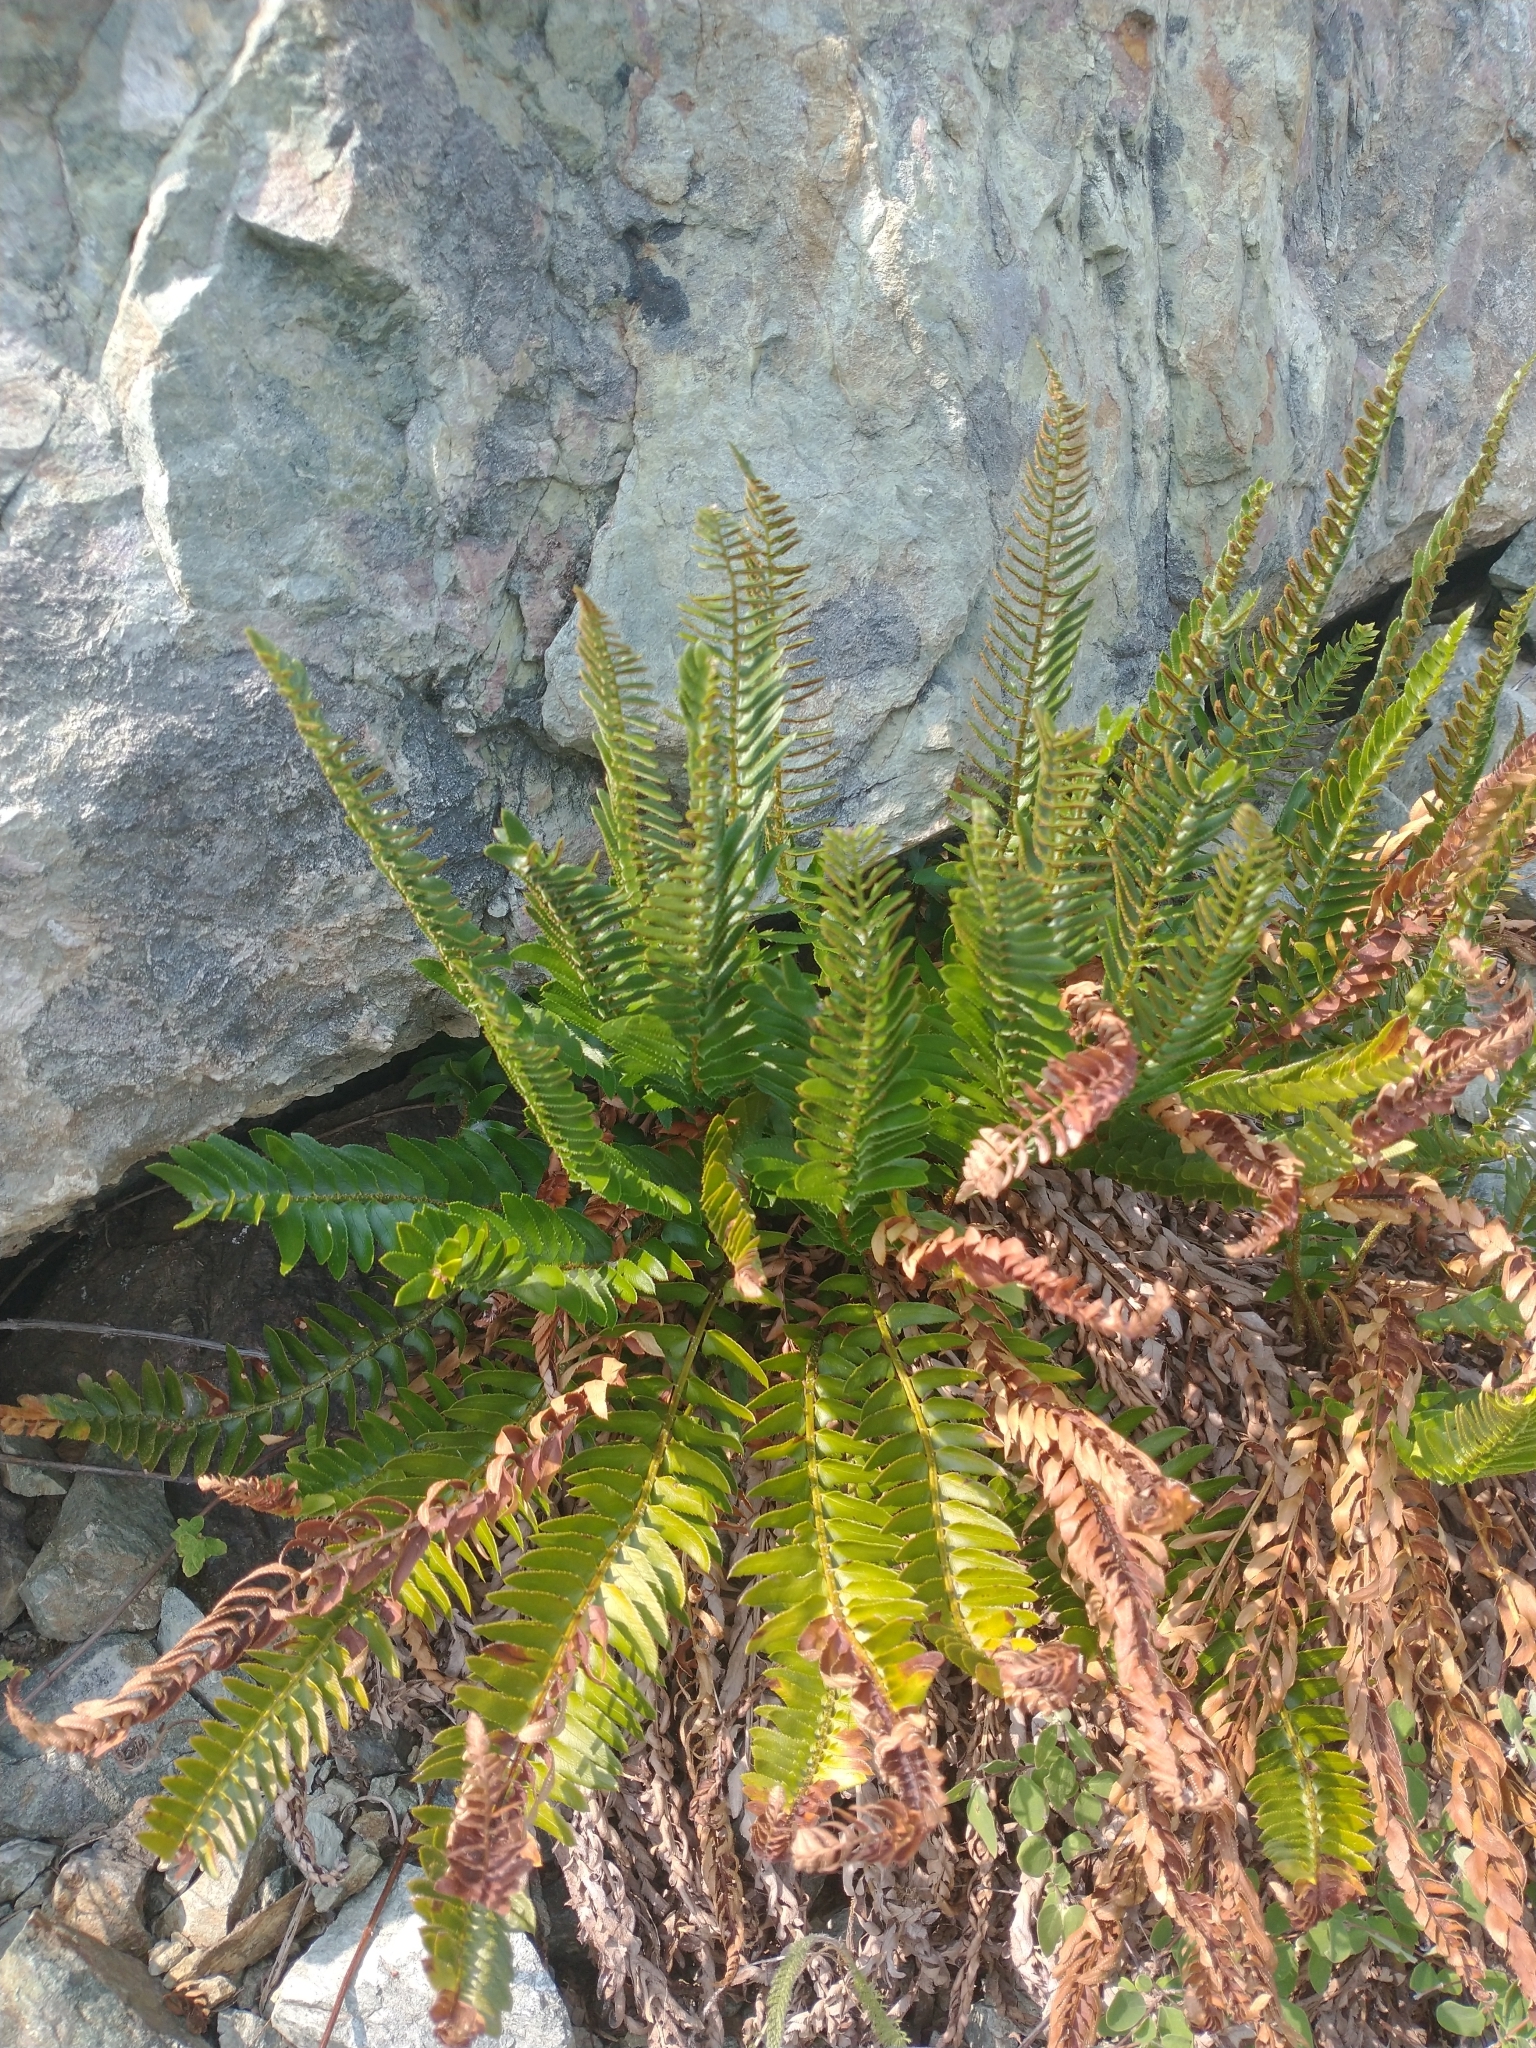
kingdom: Plantae
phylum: Tracheophyta
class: Polypodiopsida
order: Polypodiales
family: Dryopteridaceae
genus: Polystichum
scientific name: Polystichum imbricans
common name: Dwarf western sword fern
